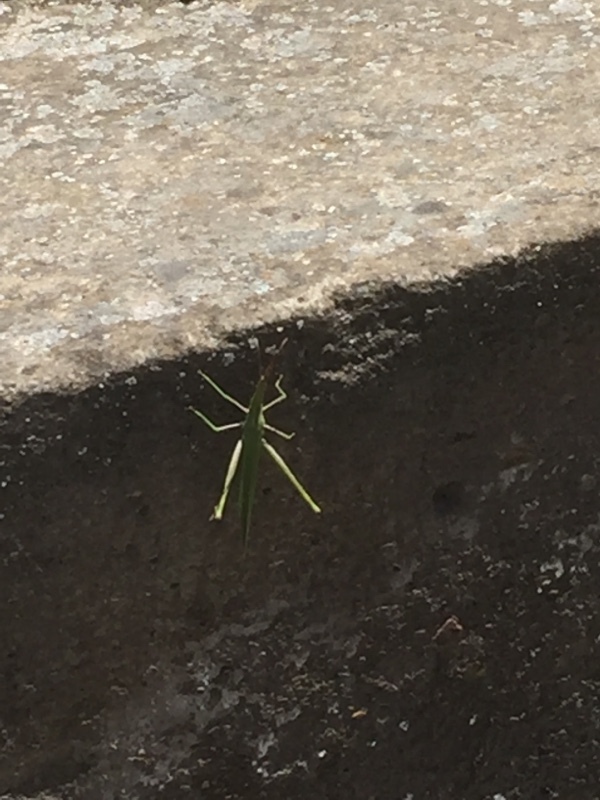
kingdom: Animalia
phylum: Arthropoda
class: Insecta
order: Orthoptera
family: Acrididae
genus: Acrida
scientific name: Acrida anatolica
